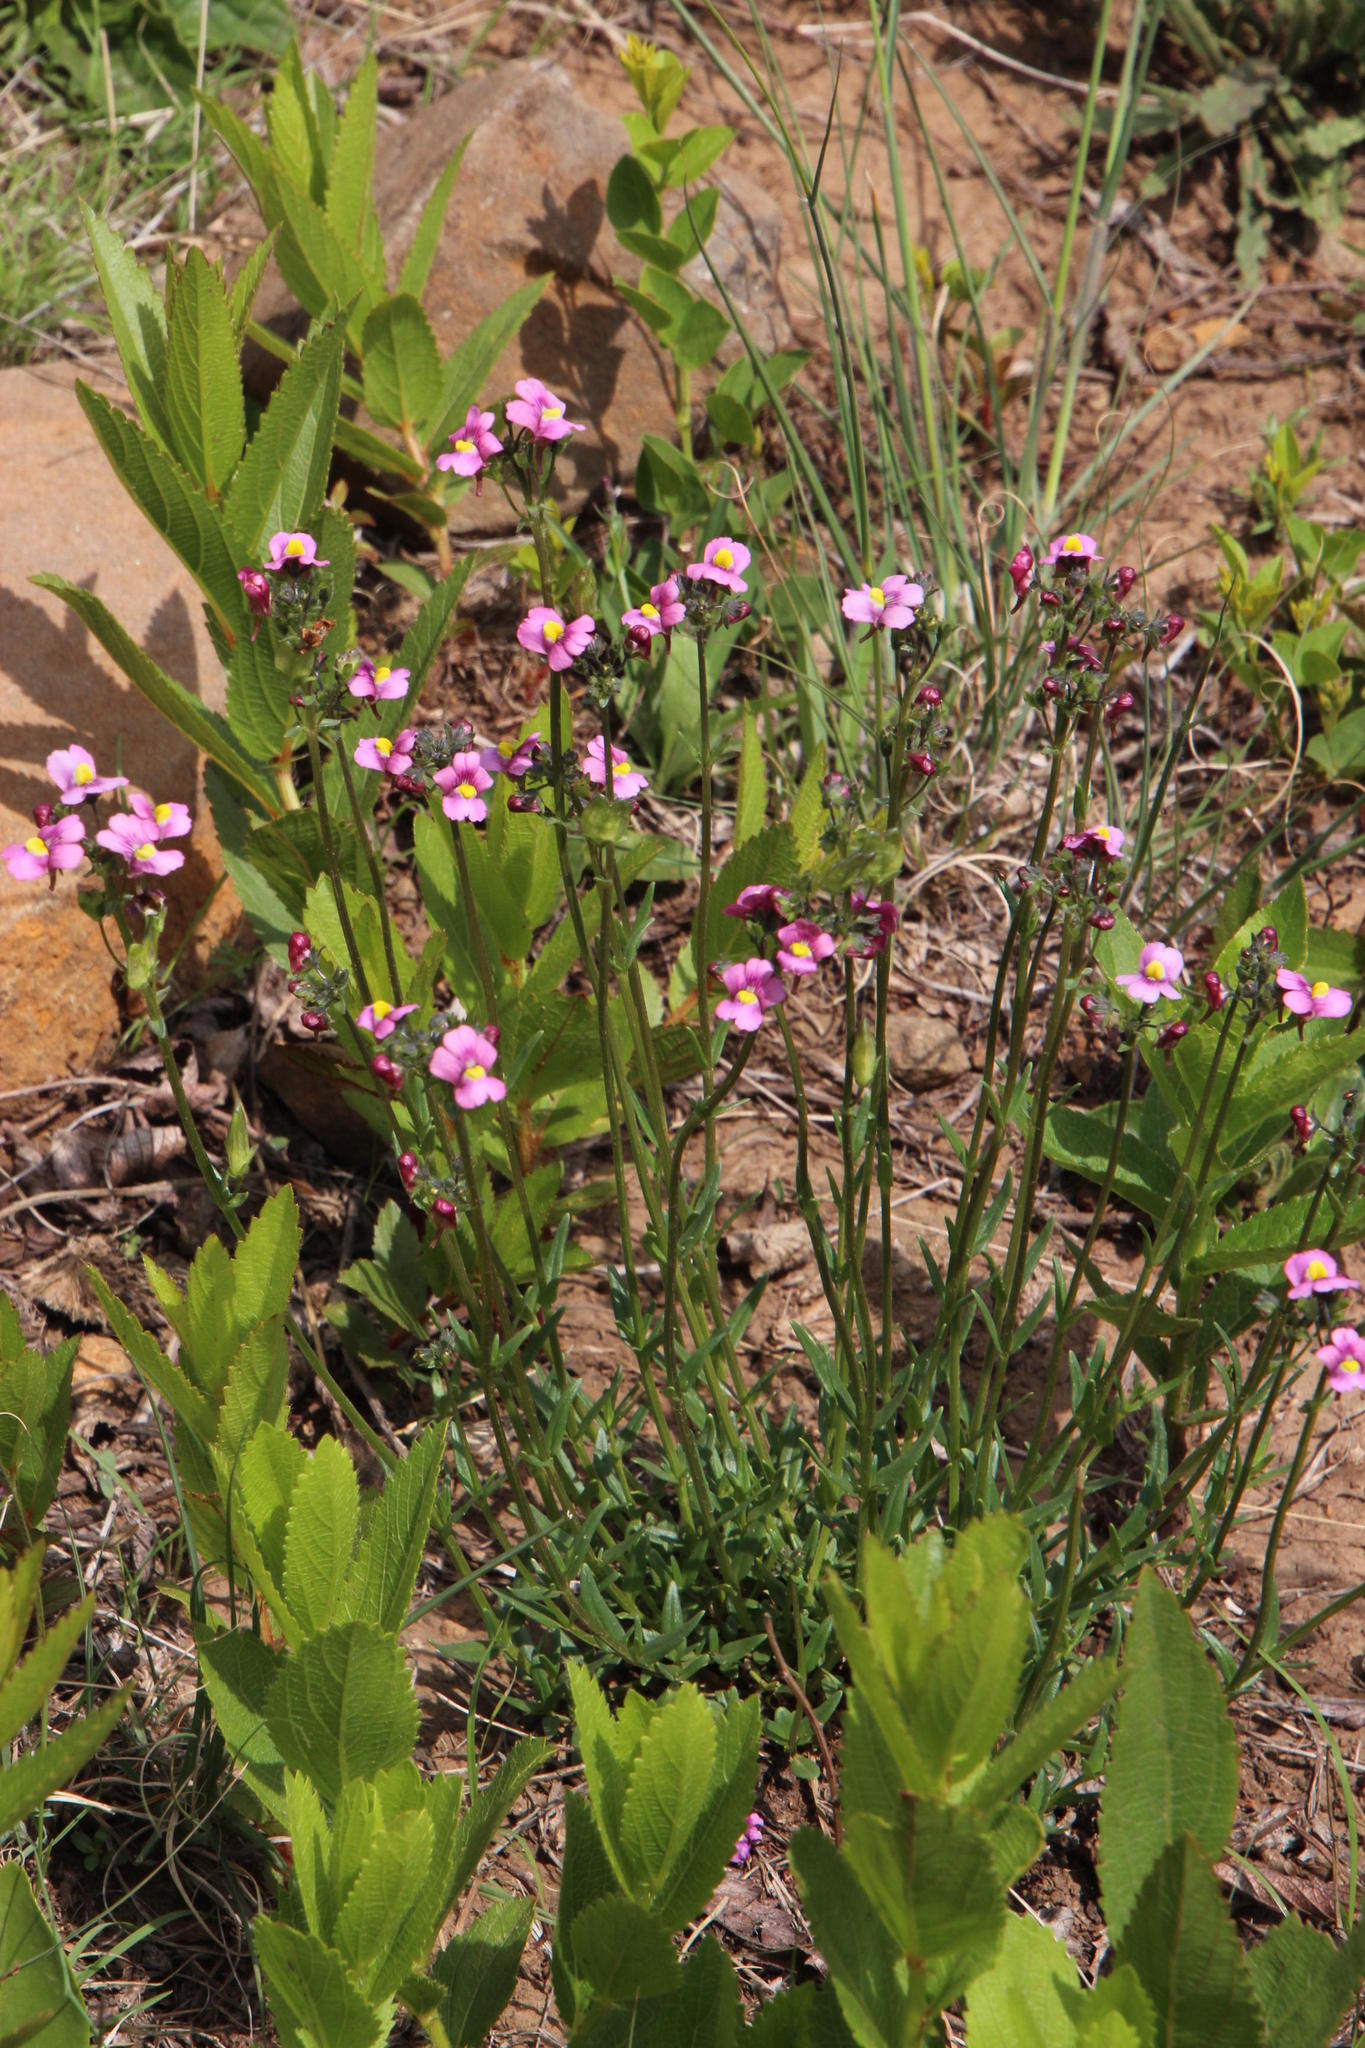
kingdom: Plantae
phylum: Tracheophyta
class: Magnoliopsida
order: Lamiales
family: Scrophulariaceae
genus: Nemesia
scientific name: Nemesia fruticans
